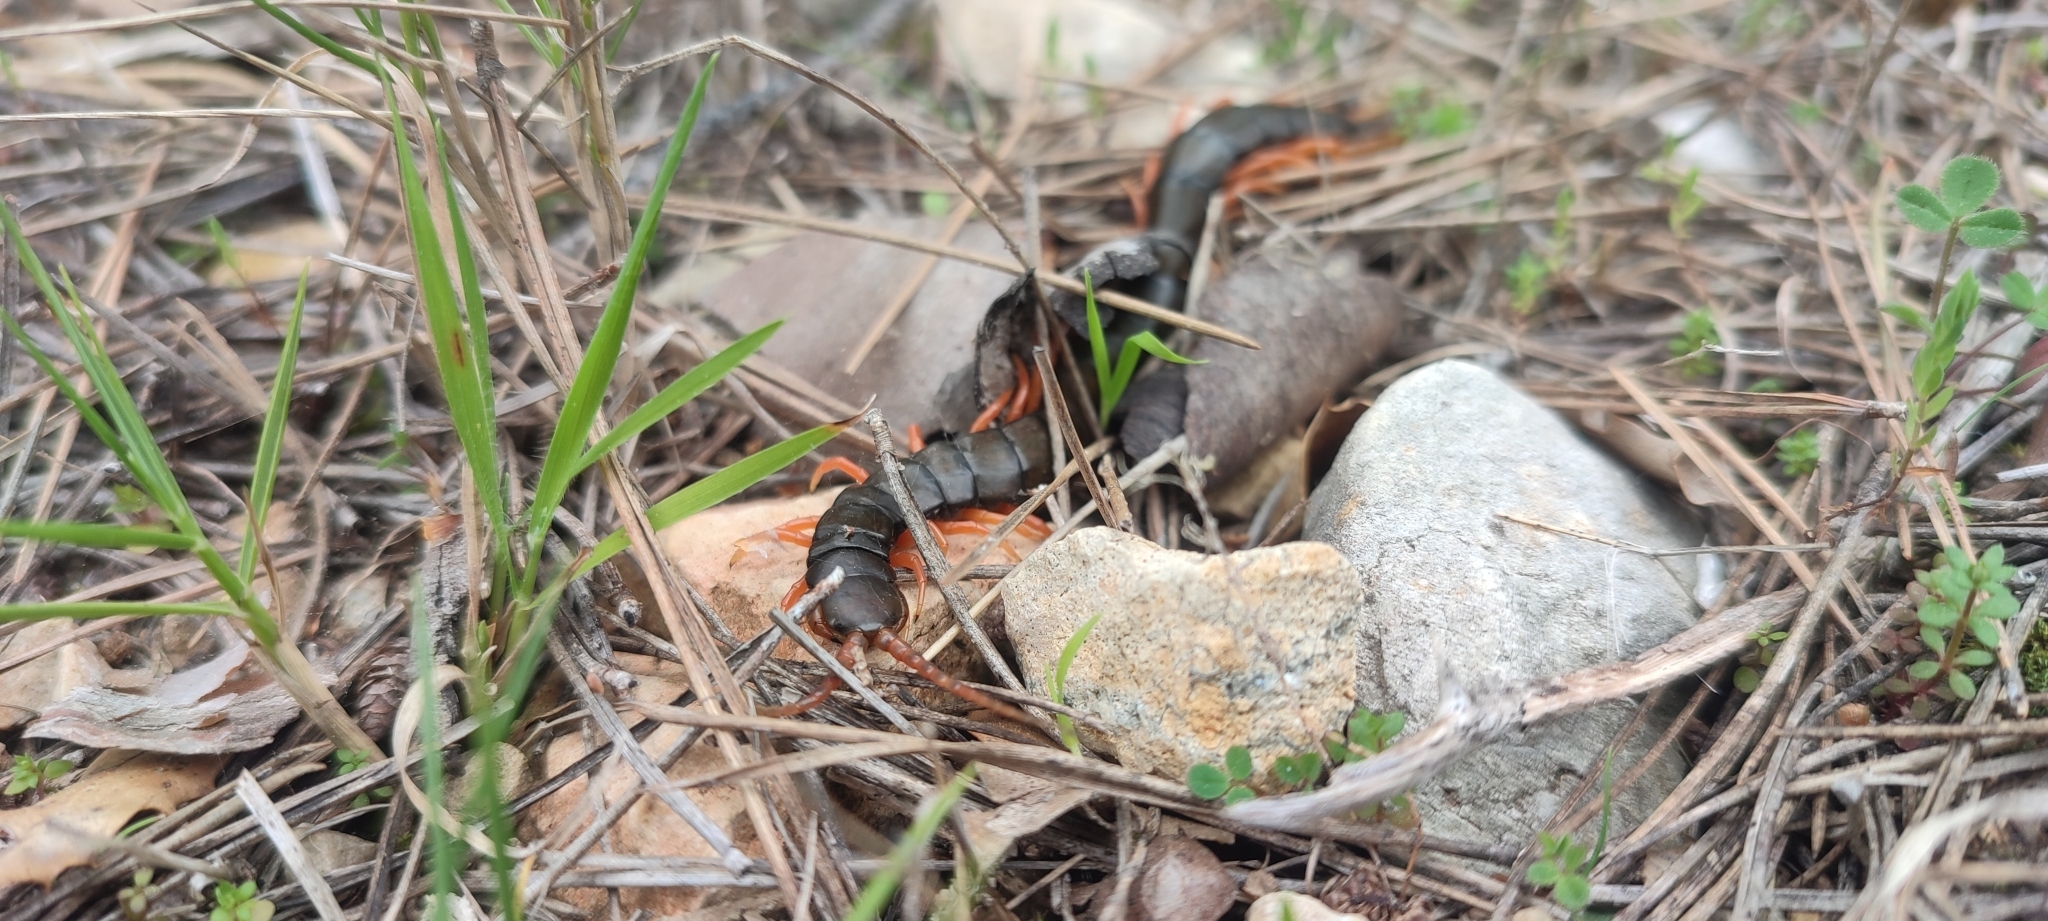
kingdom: Animalia
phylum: Arthropoda
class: Chilopoda
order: Scolopendromorpha
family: Scolopendridae
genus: Scolopendra
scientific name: Scolopendra cingulata
